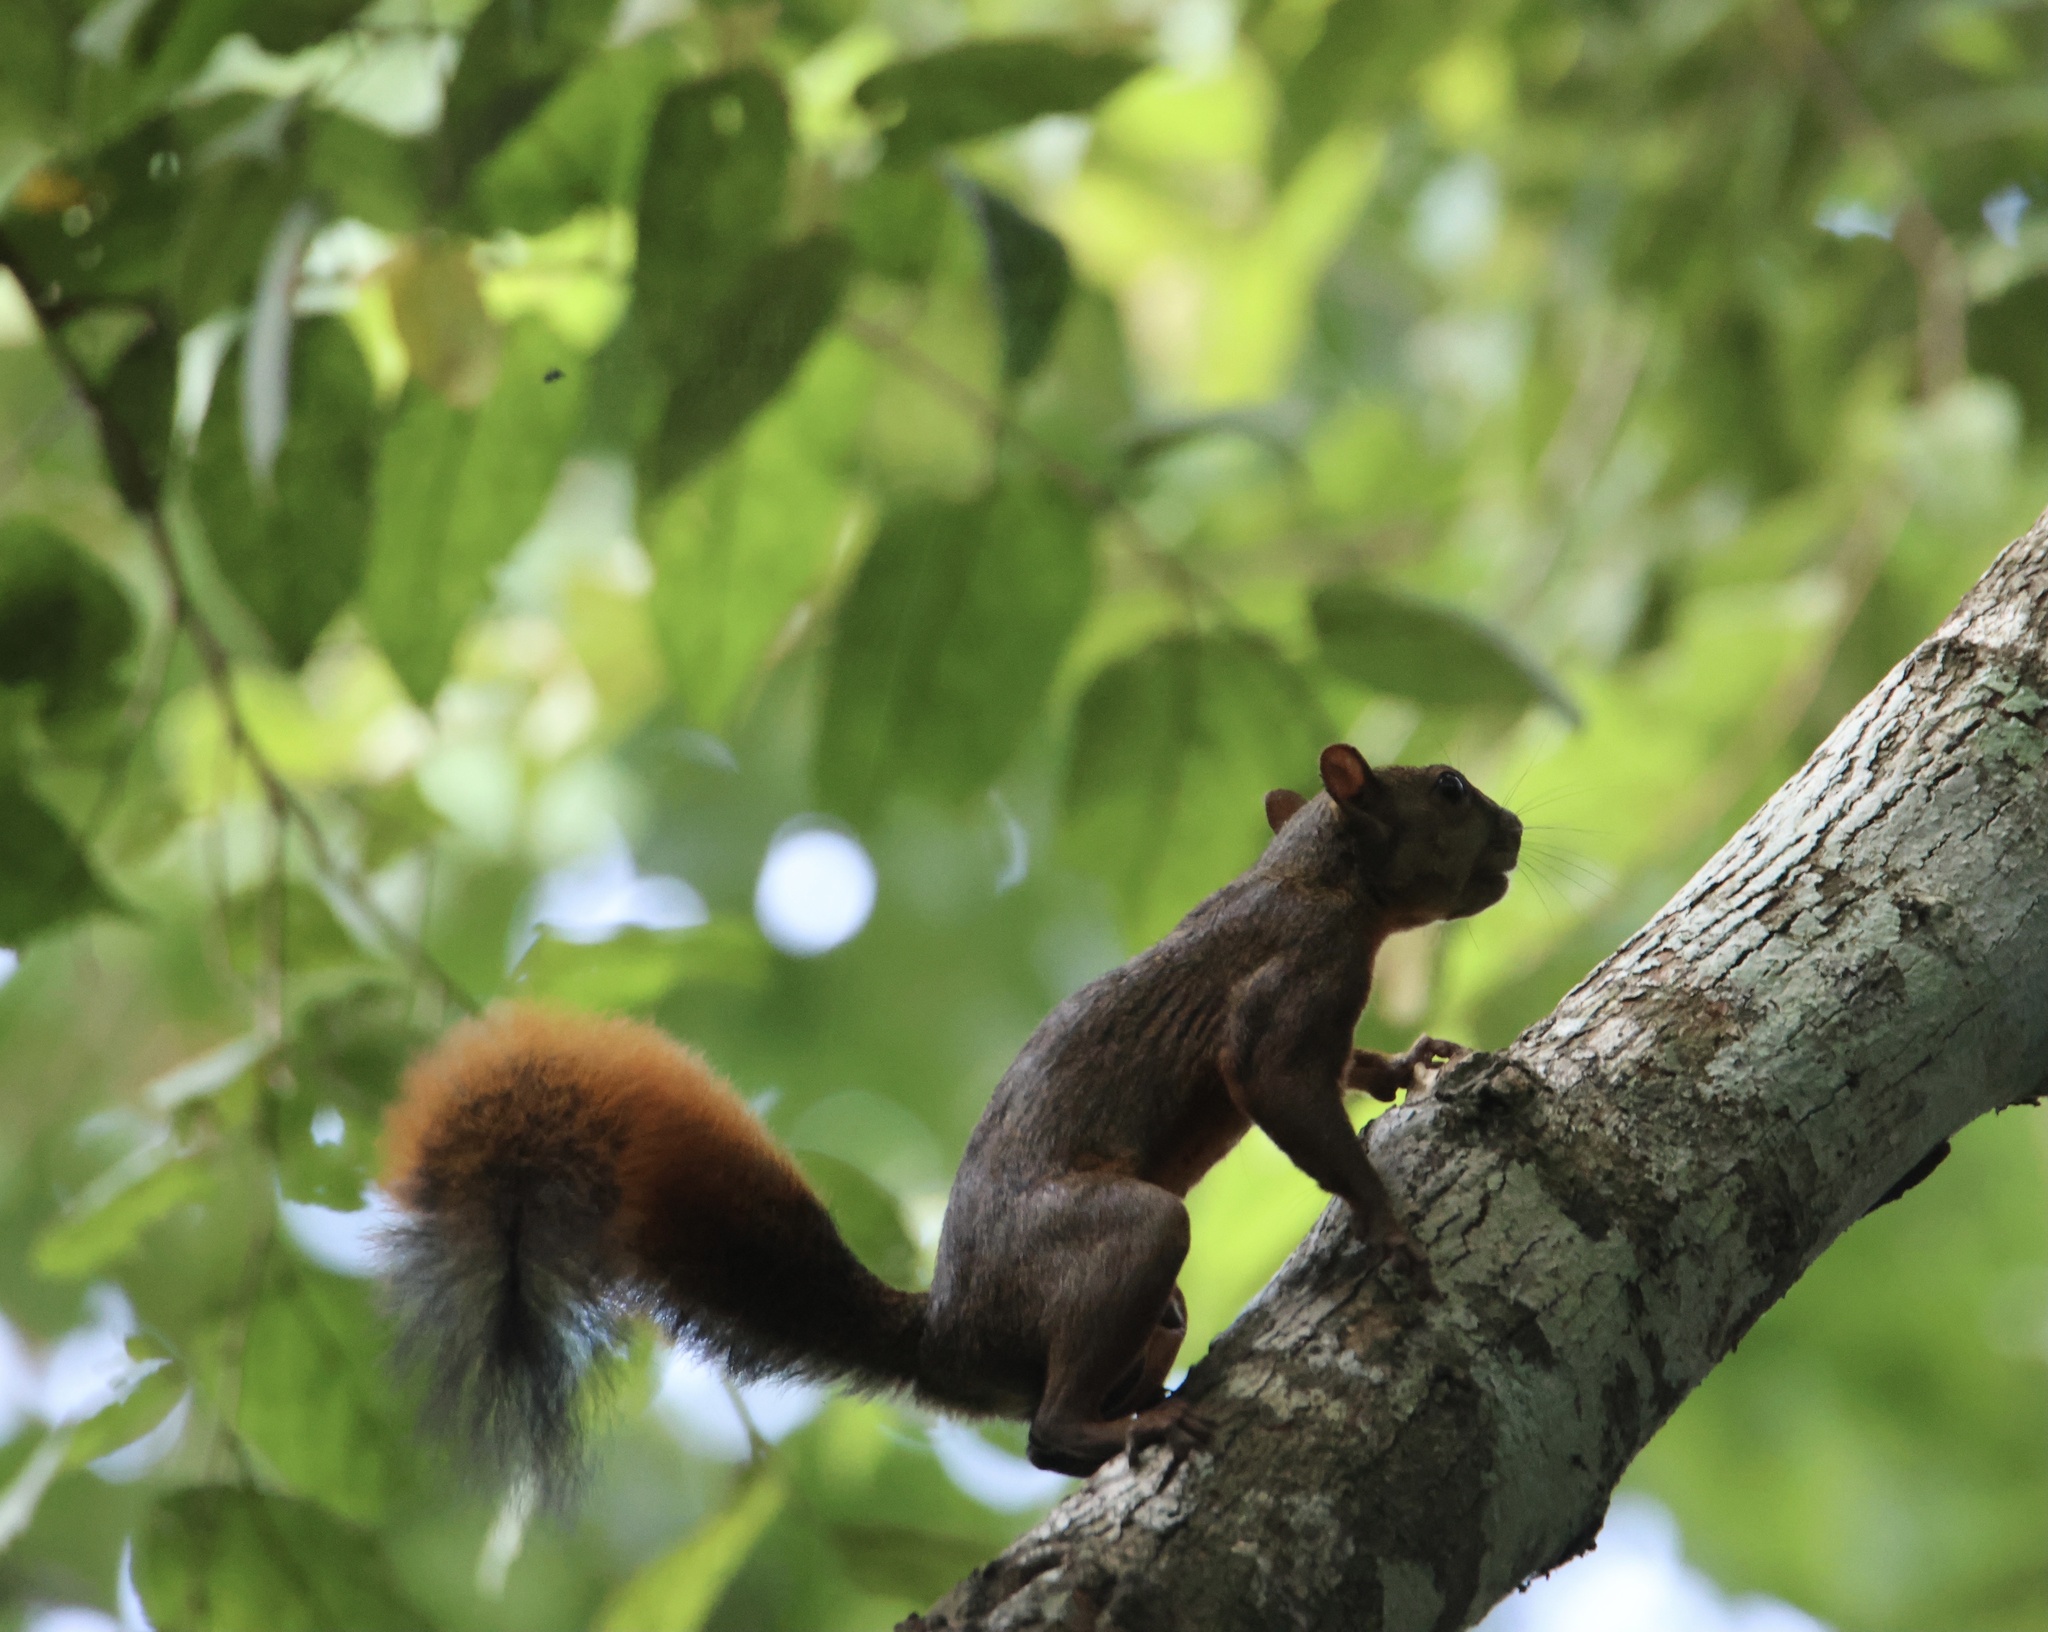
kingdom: Animalia
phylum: Chordata
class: Mammalia
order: Rodentia
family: Sciuridae
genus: Sciurus
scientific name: Sciurus granatensis
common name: Red-tailed squirrel
